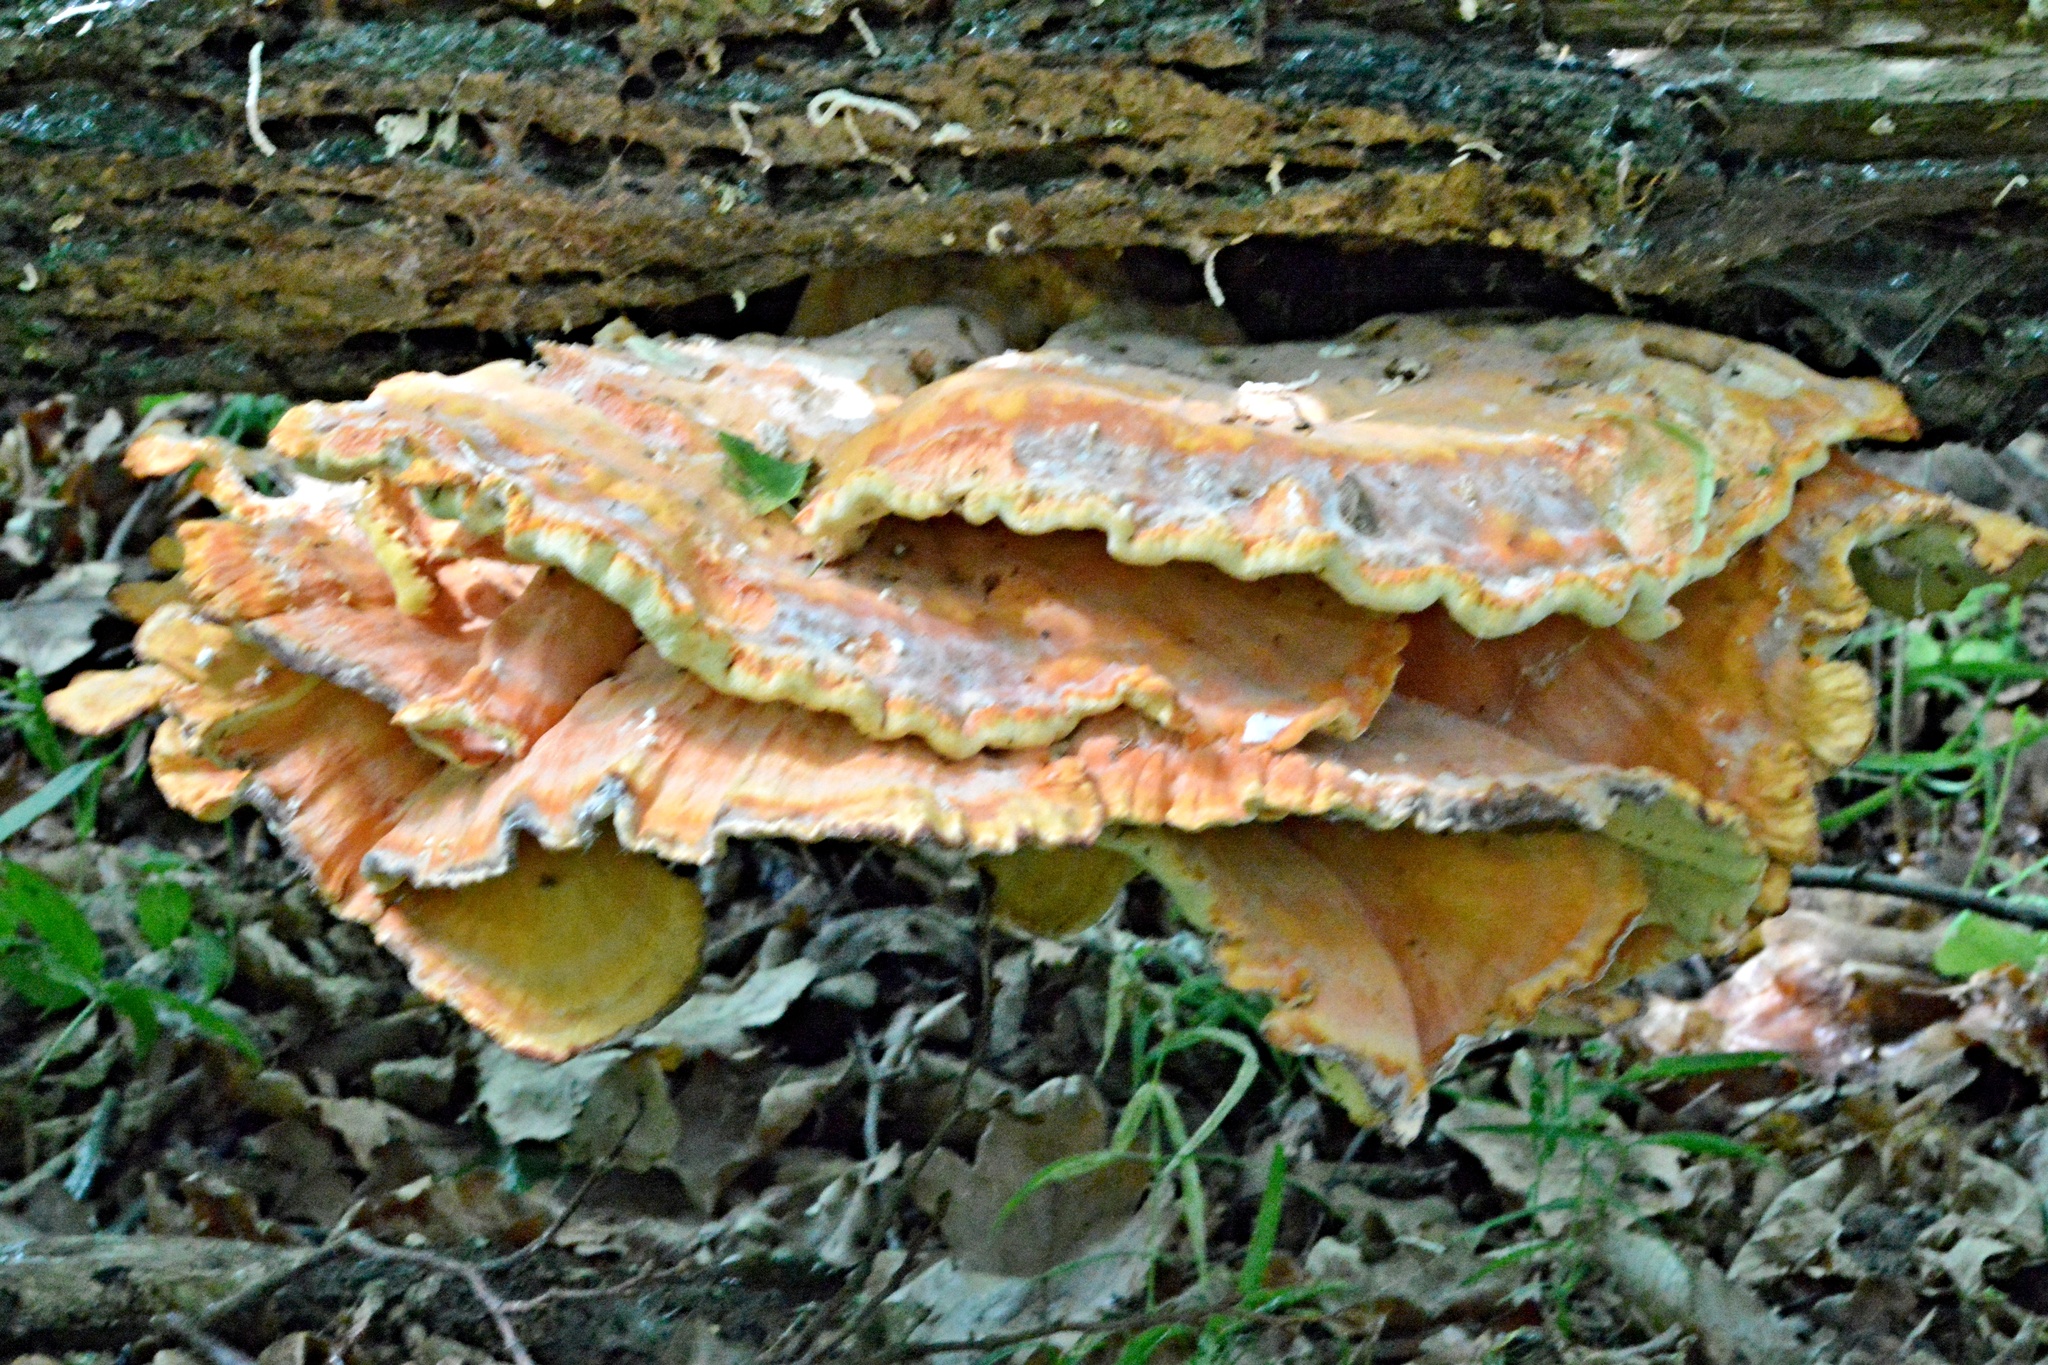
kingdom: Fungi
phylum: Basidiomycota
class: Agaricomycetes
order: Polyporales
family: Laetiporaceae
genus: Laetiporus
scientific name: Laetiporus sulphureus
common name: Chicken of the woods
